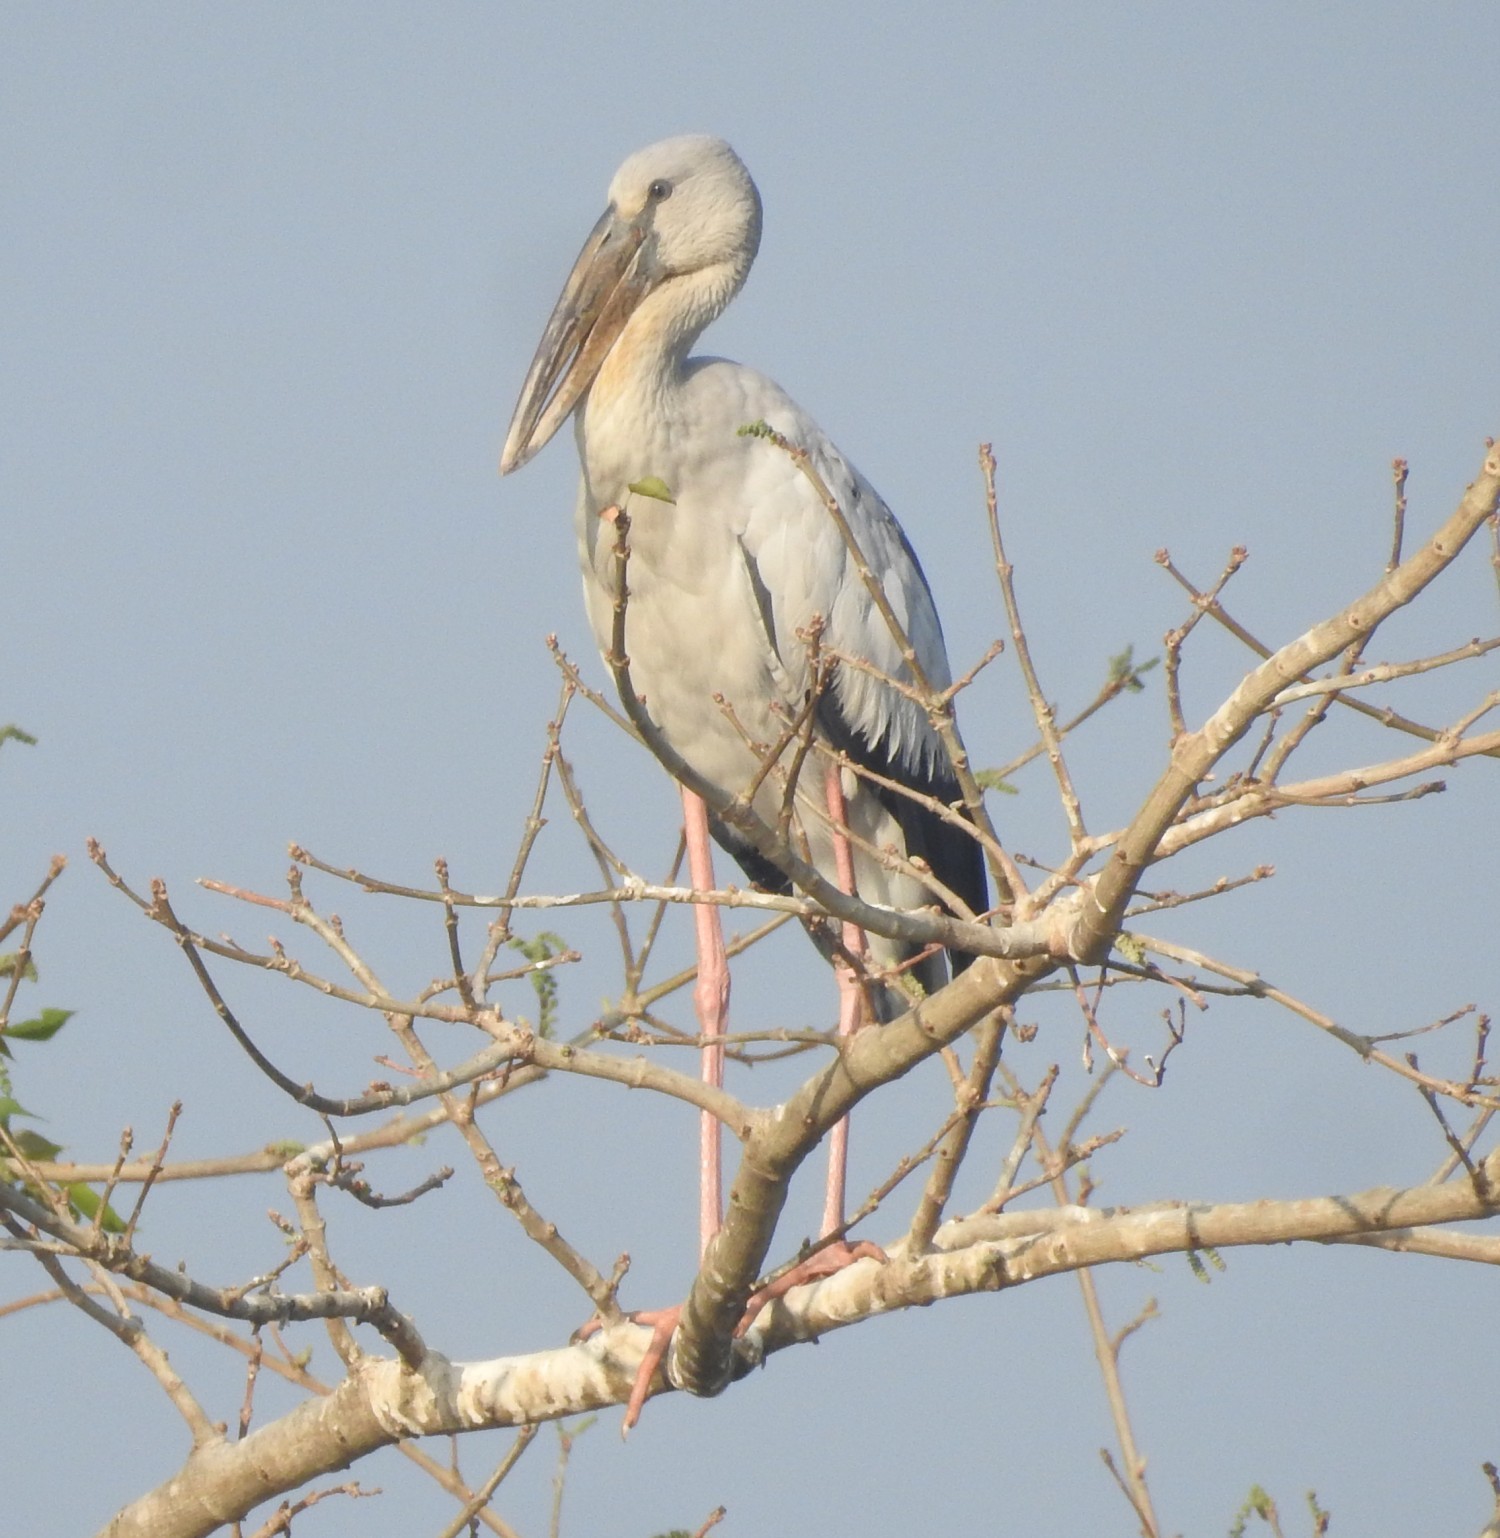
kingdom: Animalia
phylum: Chordata
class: Aves
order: Ciconiiformes
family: Ciconiidae
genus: Anastomus
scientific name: Anastomus oscitans
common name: Asian openbill
